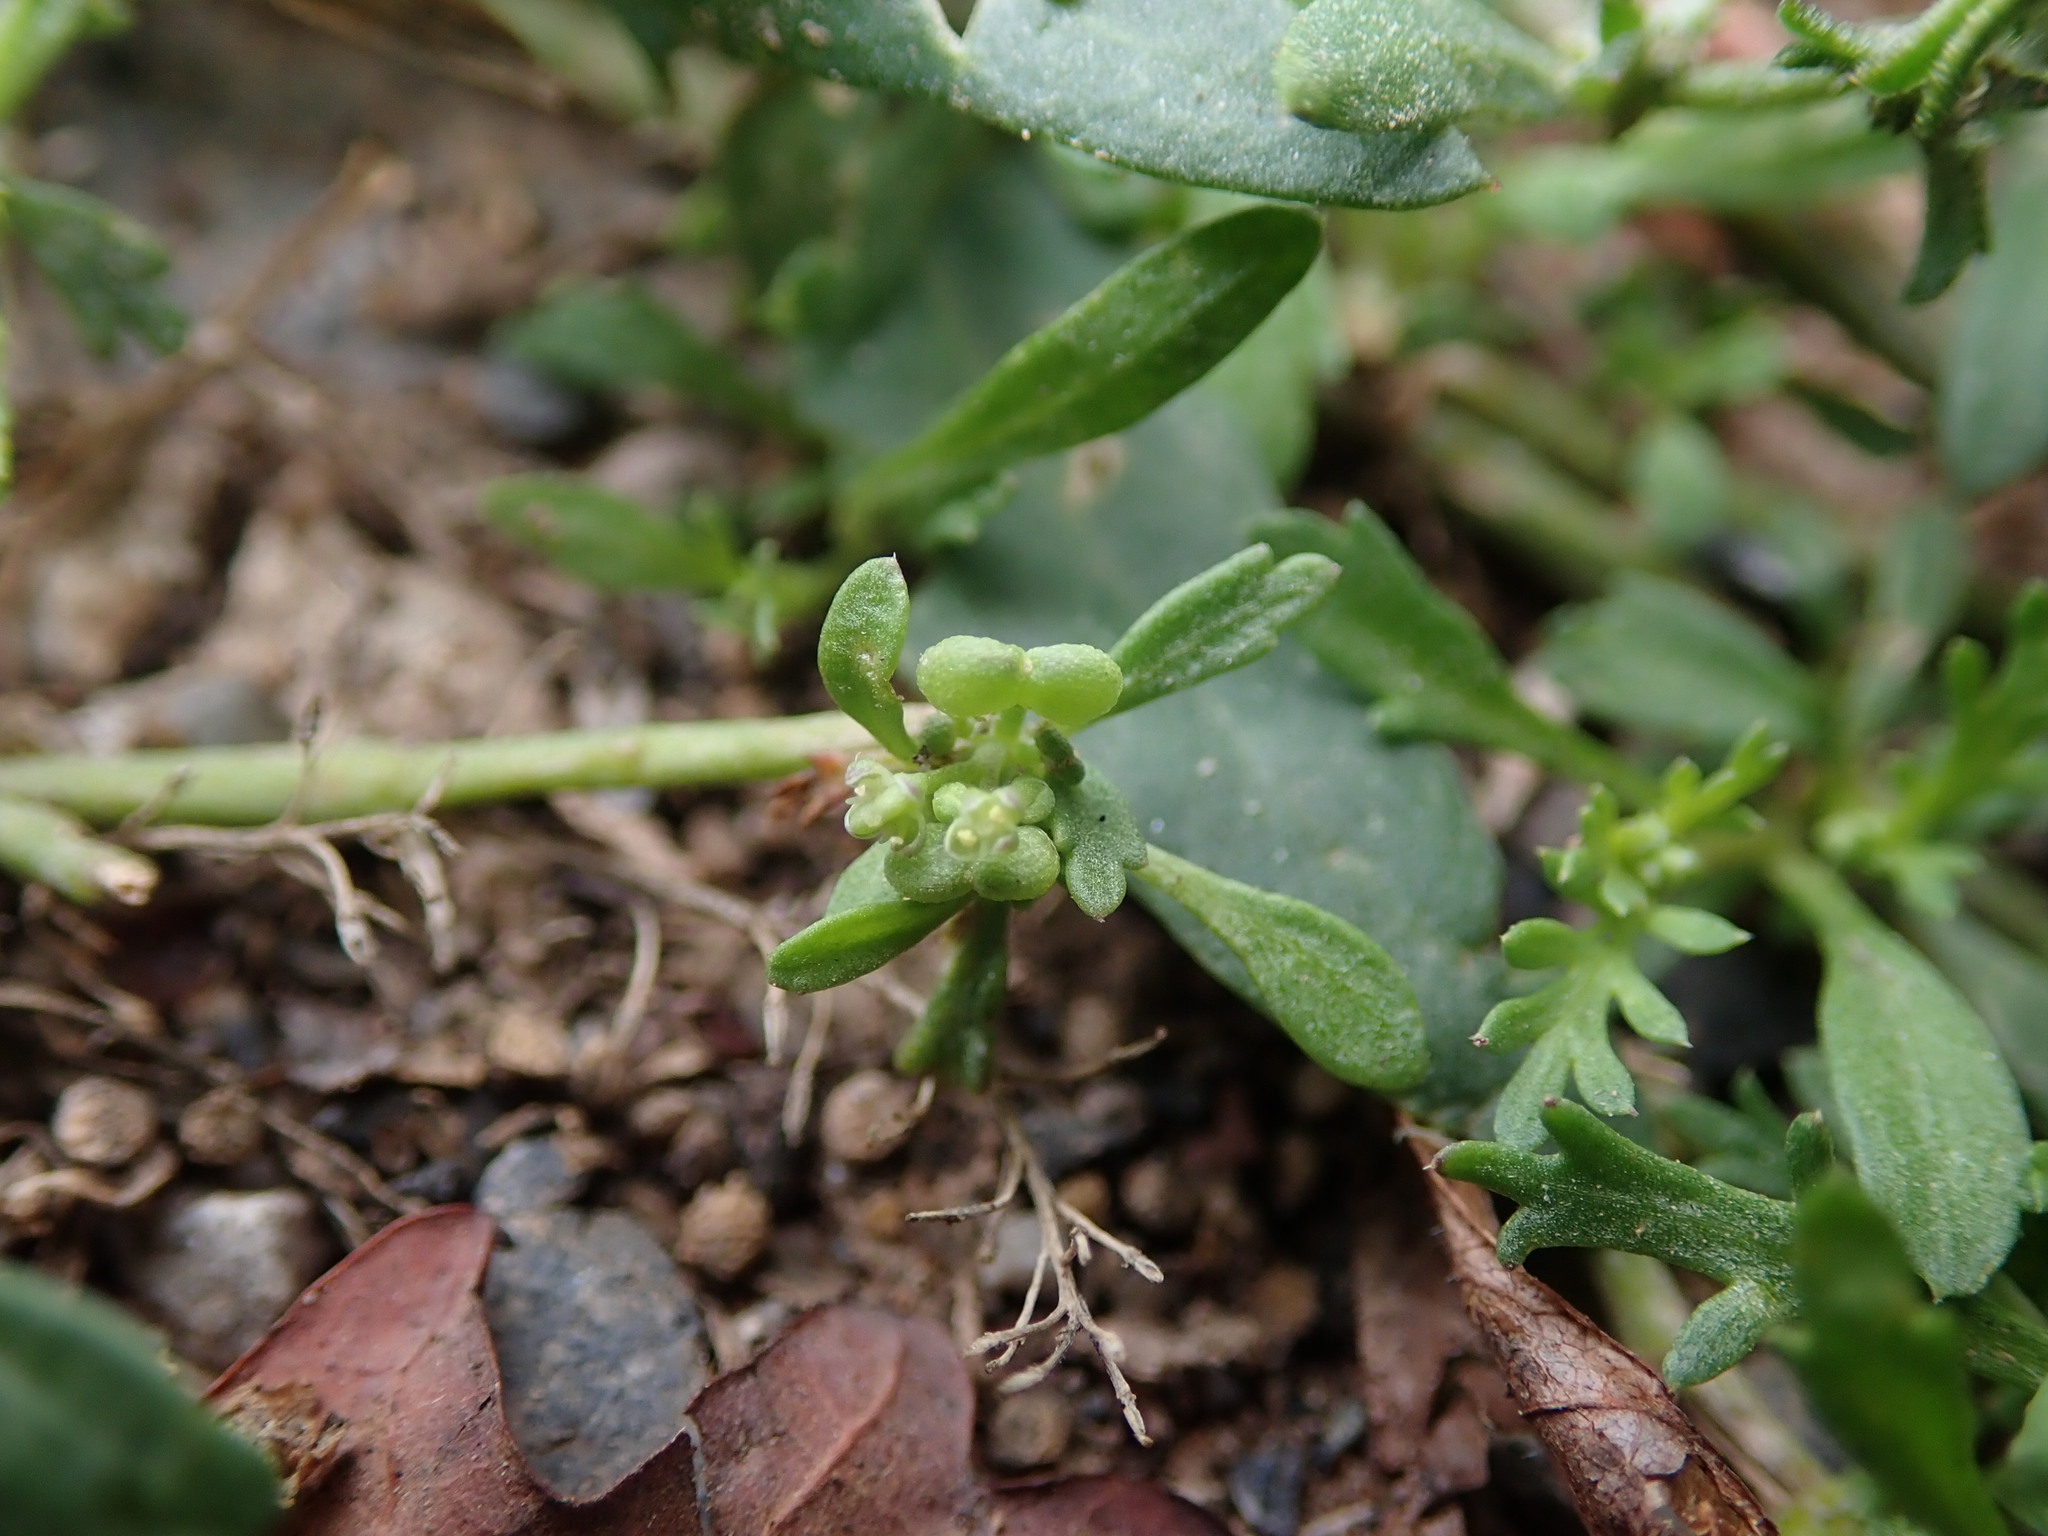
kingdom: Plantae
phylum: Tracheophyta
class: Magnoliopsida
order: Brassicales
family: Brassicaceae
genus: Lepidium
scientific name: Lepidium didymum
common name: Lesser swinecress
